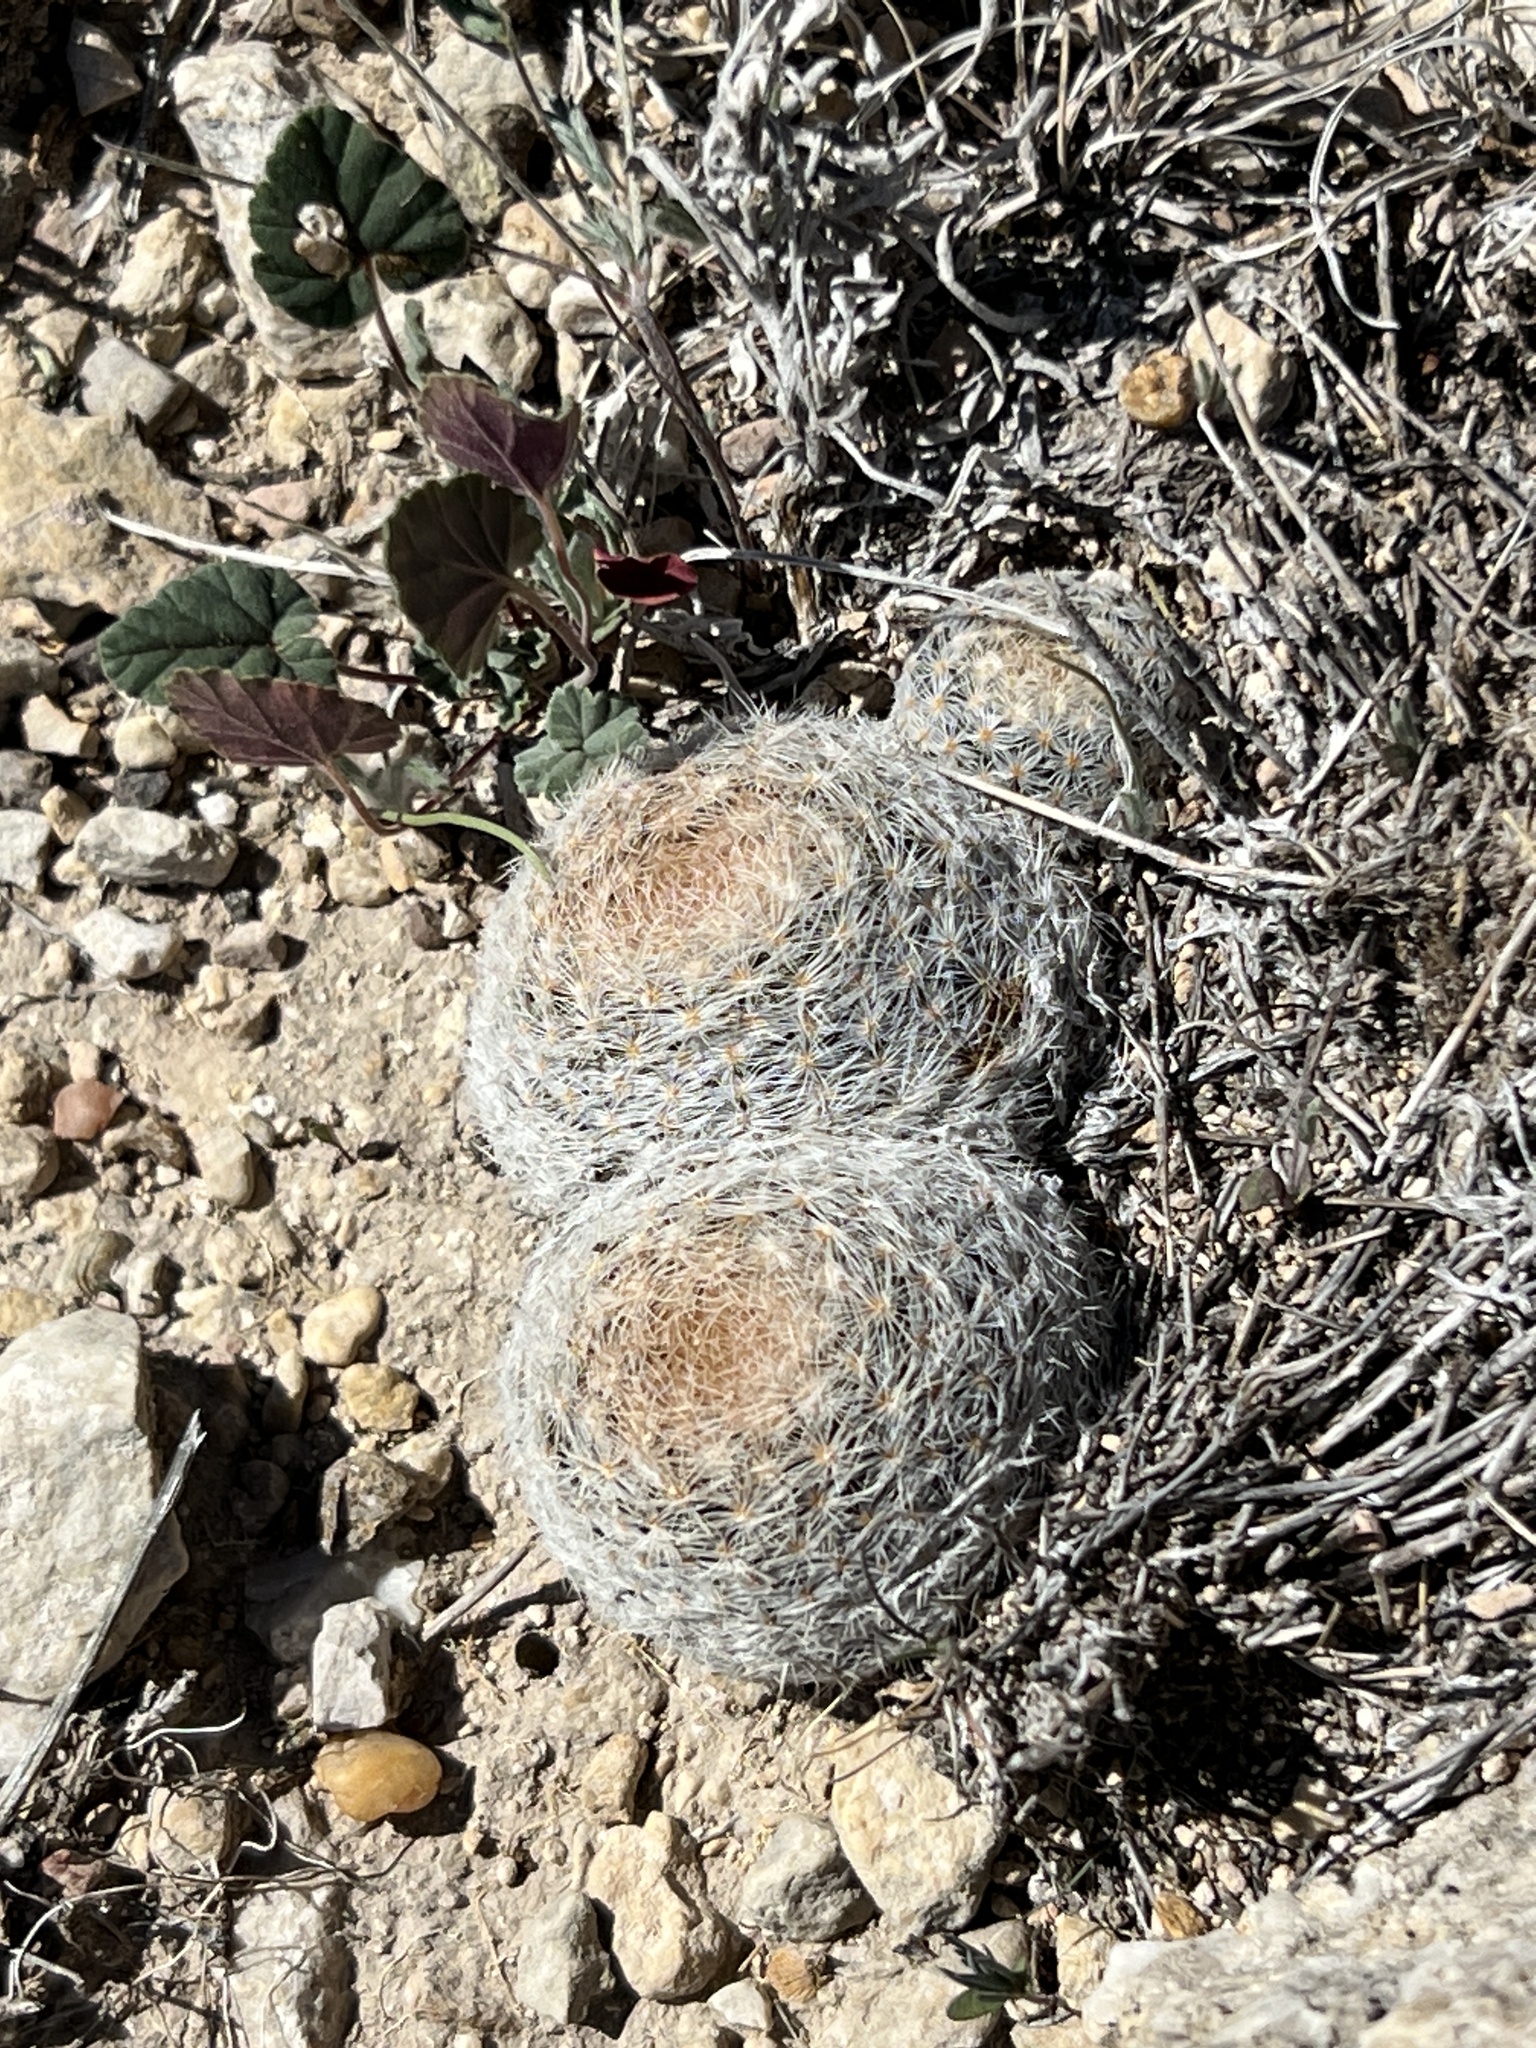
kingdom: Plantae
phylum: Tracheophyta
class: Magnoliopsida
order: Caryophyllales
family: Cactaceae
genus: Mammillaria
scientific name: Mammillaria lasiacantha
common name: Lace-spine nipple cactus
